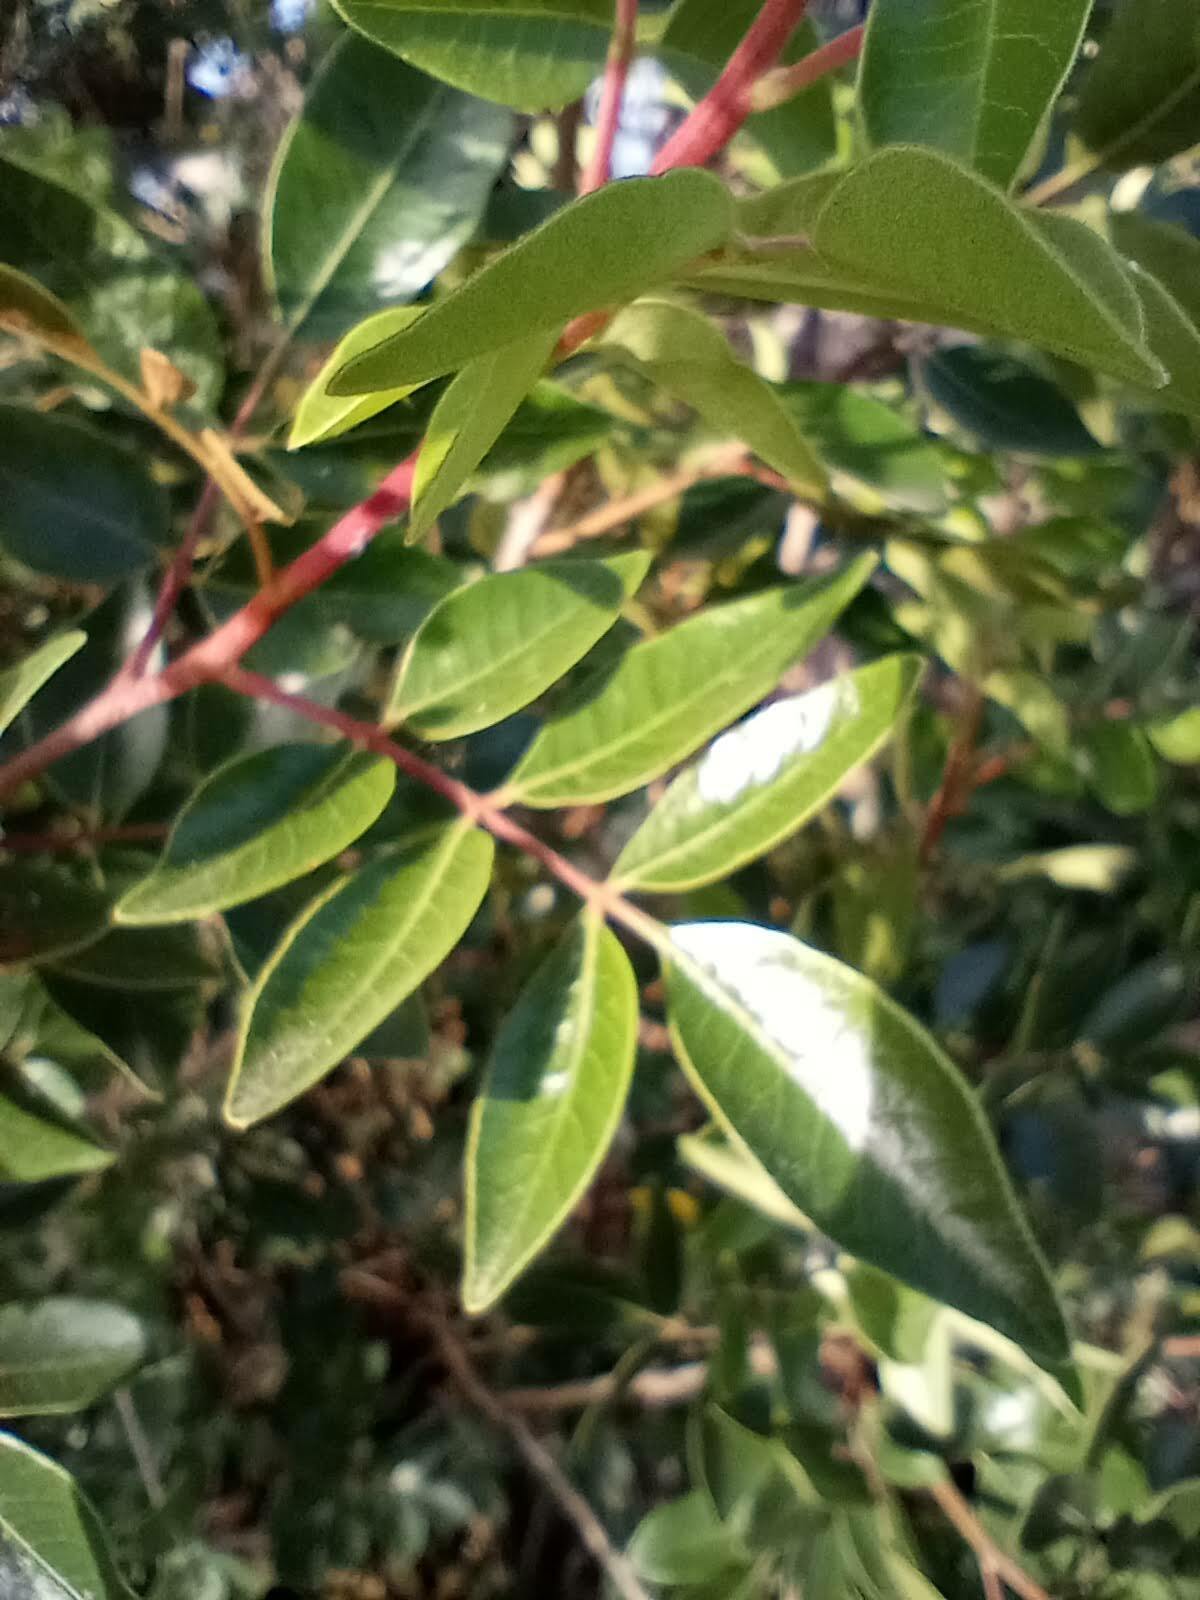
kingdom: Plantae
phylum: Tracheophyta
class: Magnoliopsida
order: Sapindales
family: Anacardiaceae
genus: Rhus
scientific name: Rhus virens
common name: Evergreen sumac
